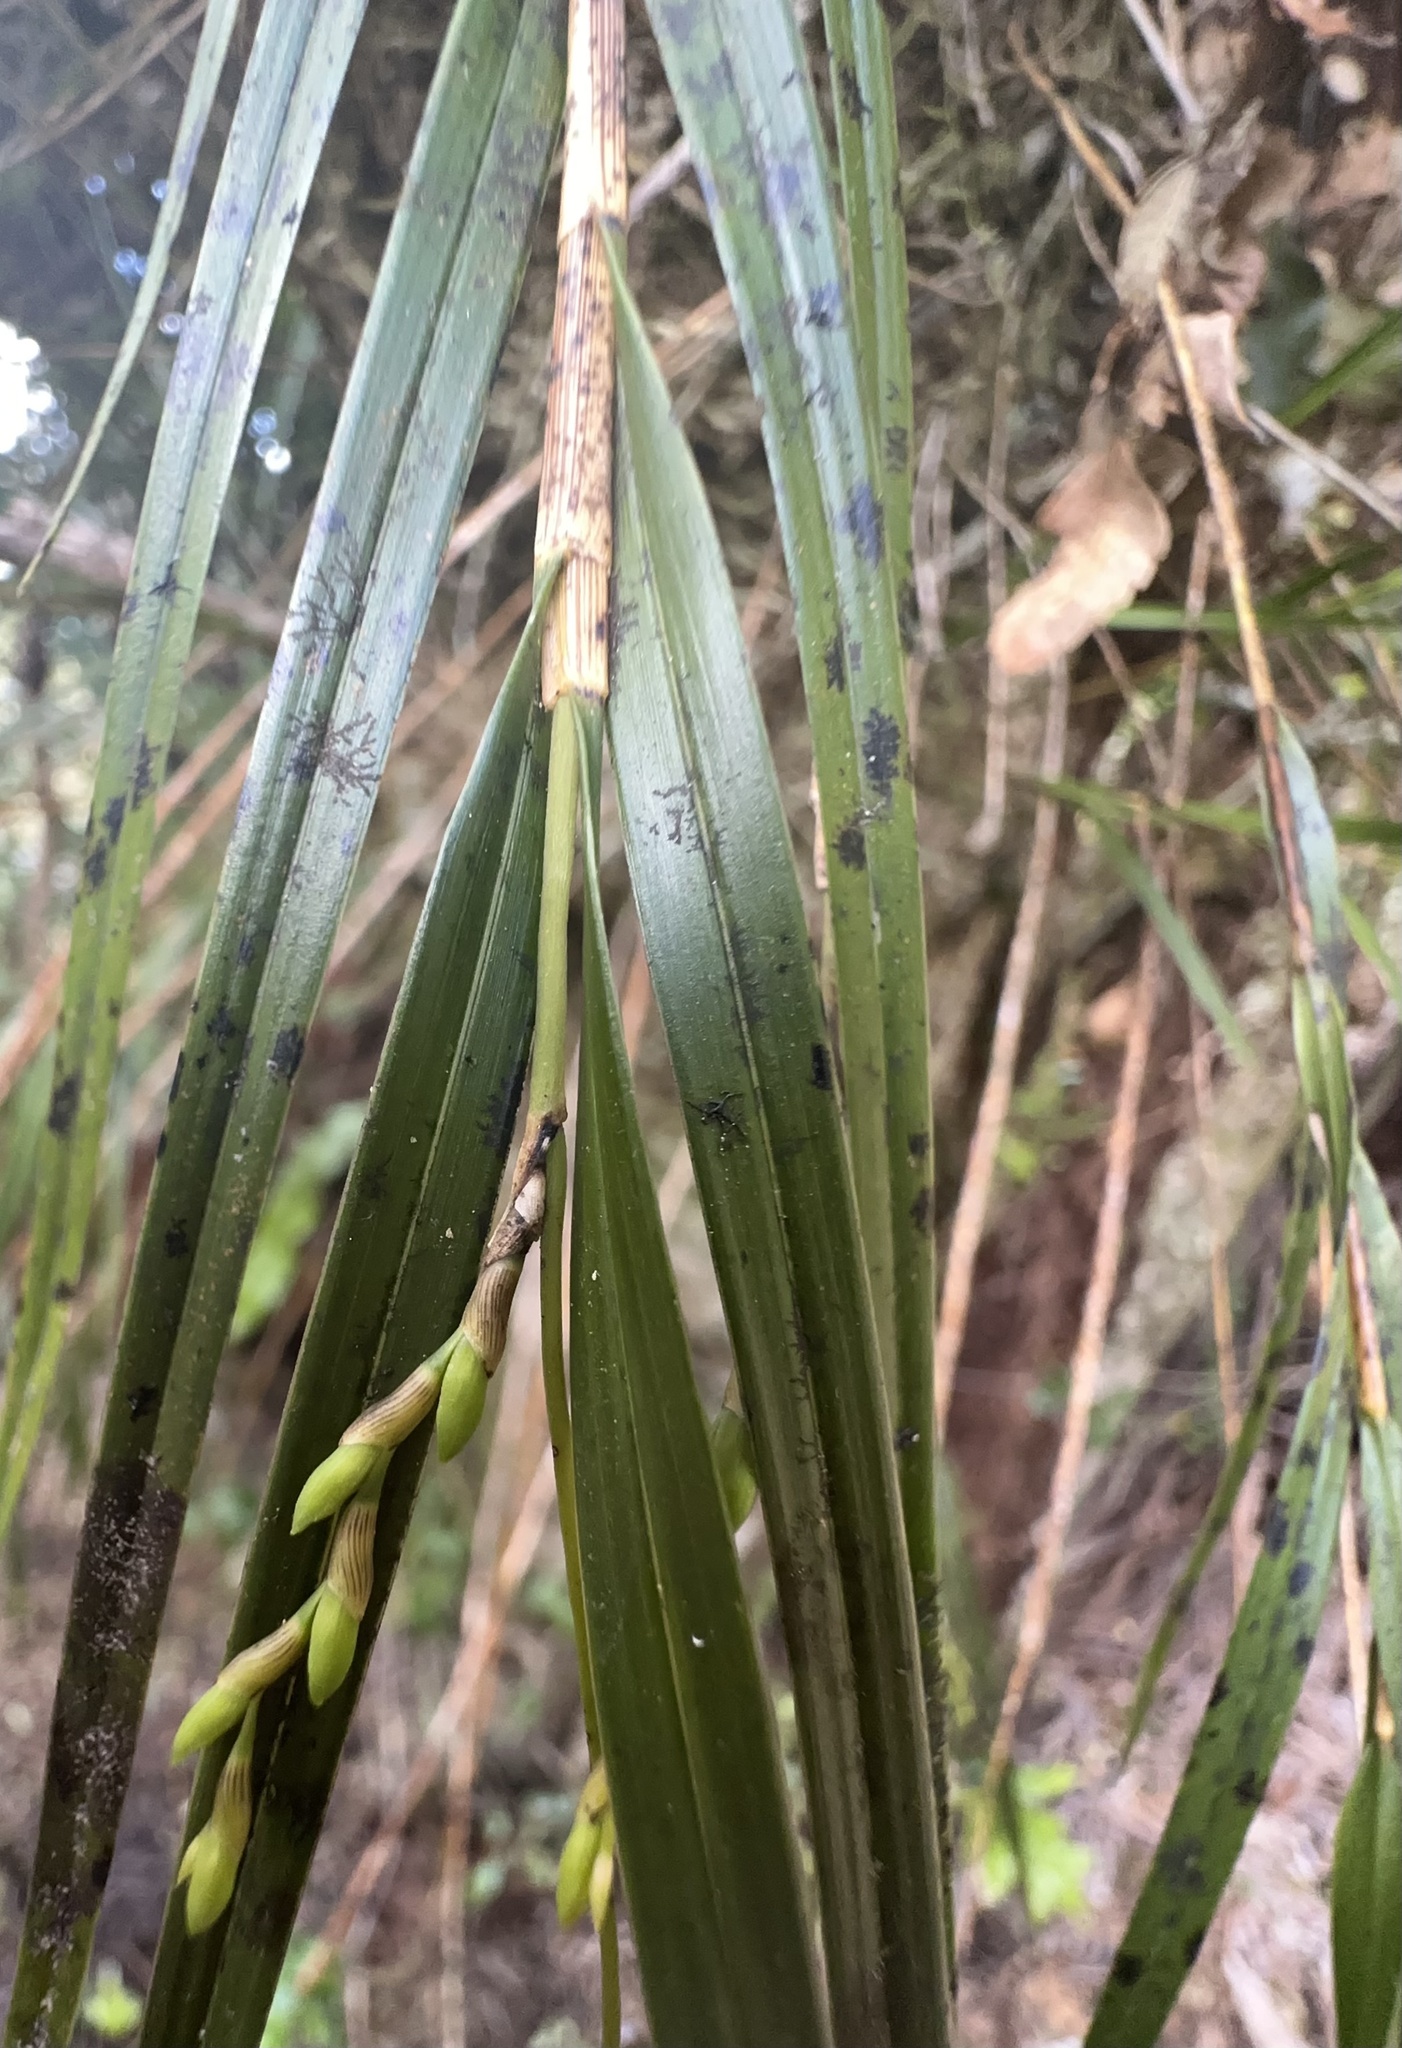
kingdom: Plantae
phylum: Tracheophyta
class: Liliopsida
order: Asparagales
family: Orchidaceae
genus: Earina
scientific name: Earina mucronata
